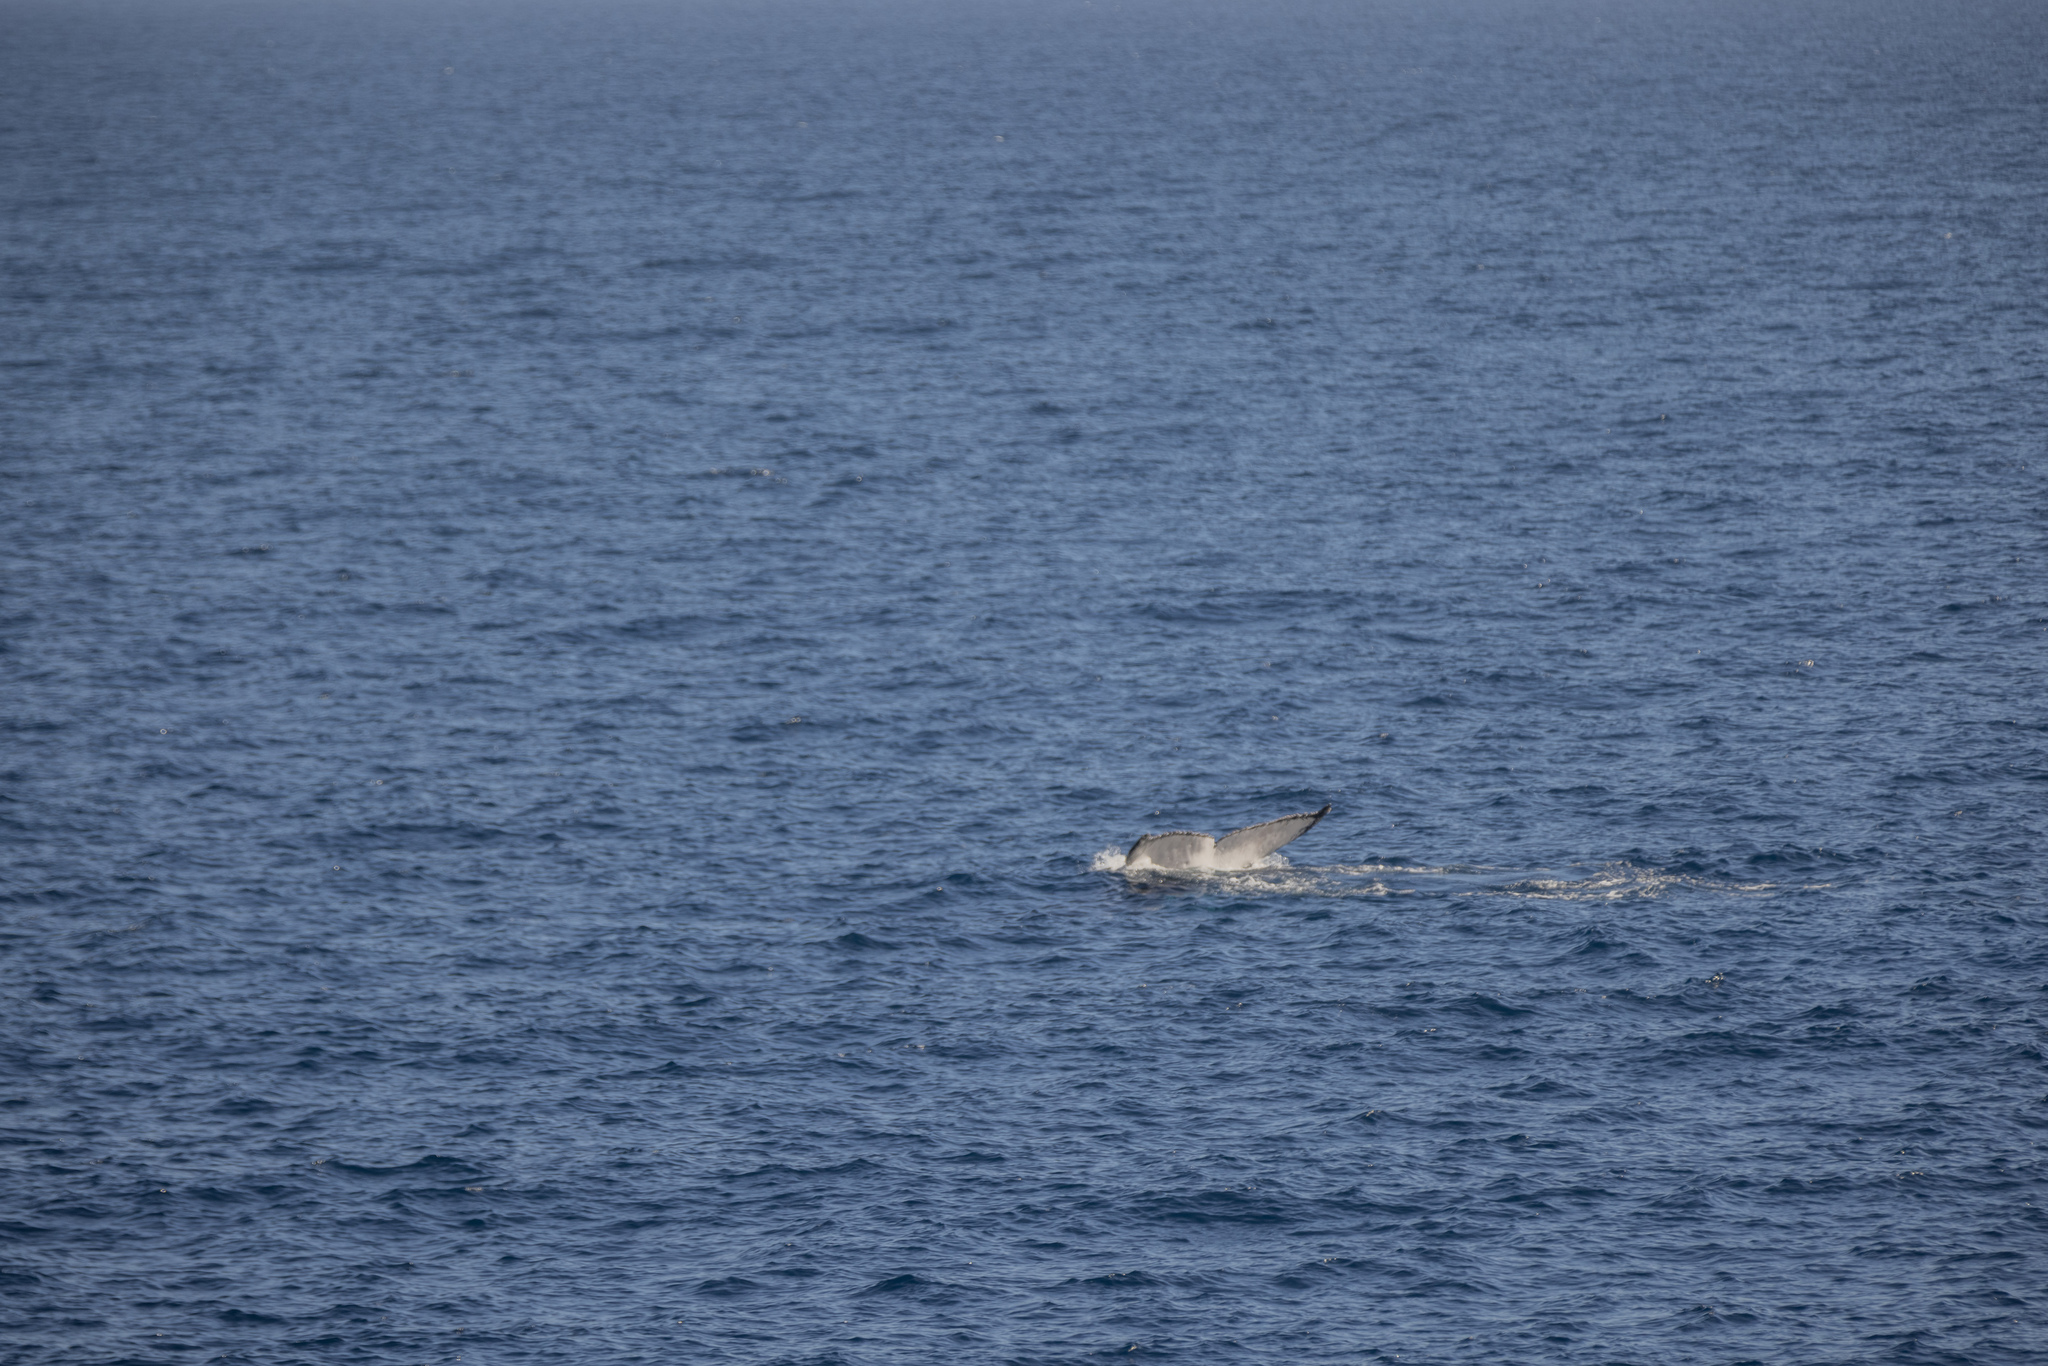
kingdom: Animalia
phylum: Chordata
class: Mammalia
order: Cetacea
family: Balaenopteridae
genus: Megaptera
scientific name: Megaptera novaeangliae
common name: Humpback whale
